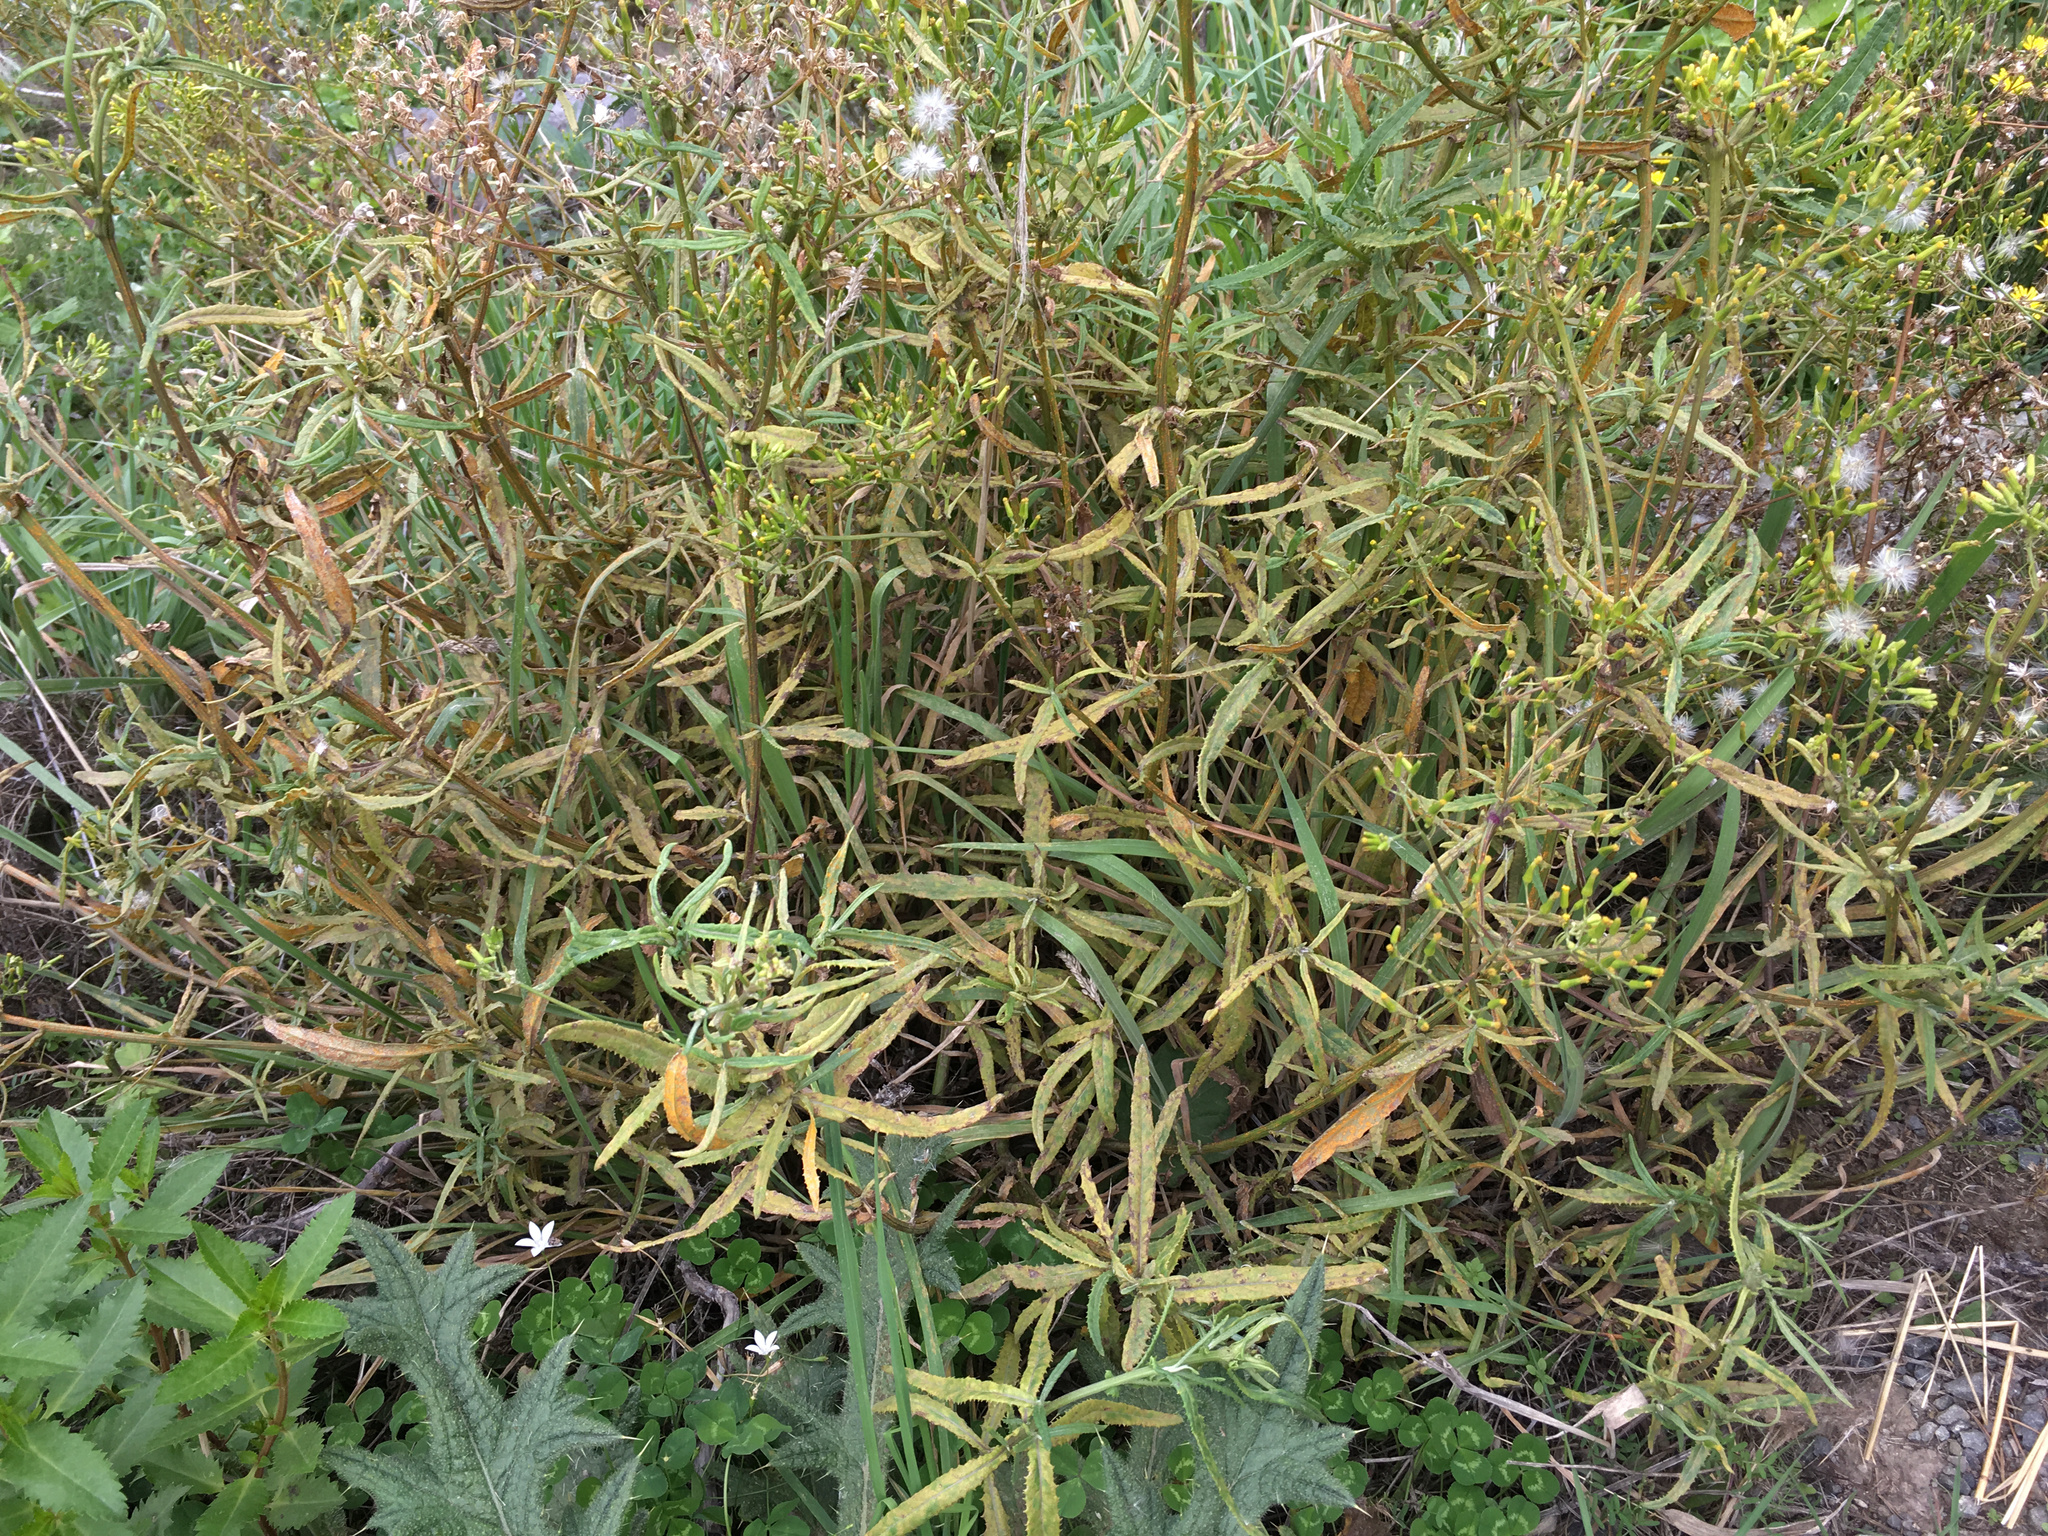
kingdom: Fungi
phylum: Basidiomycota
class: Pucciniomycetes
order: Pucciniales
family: Coleosporiaceae
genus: Coleosporium
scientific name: Coleosporium tussilaginis
